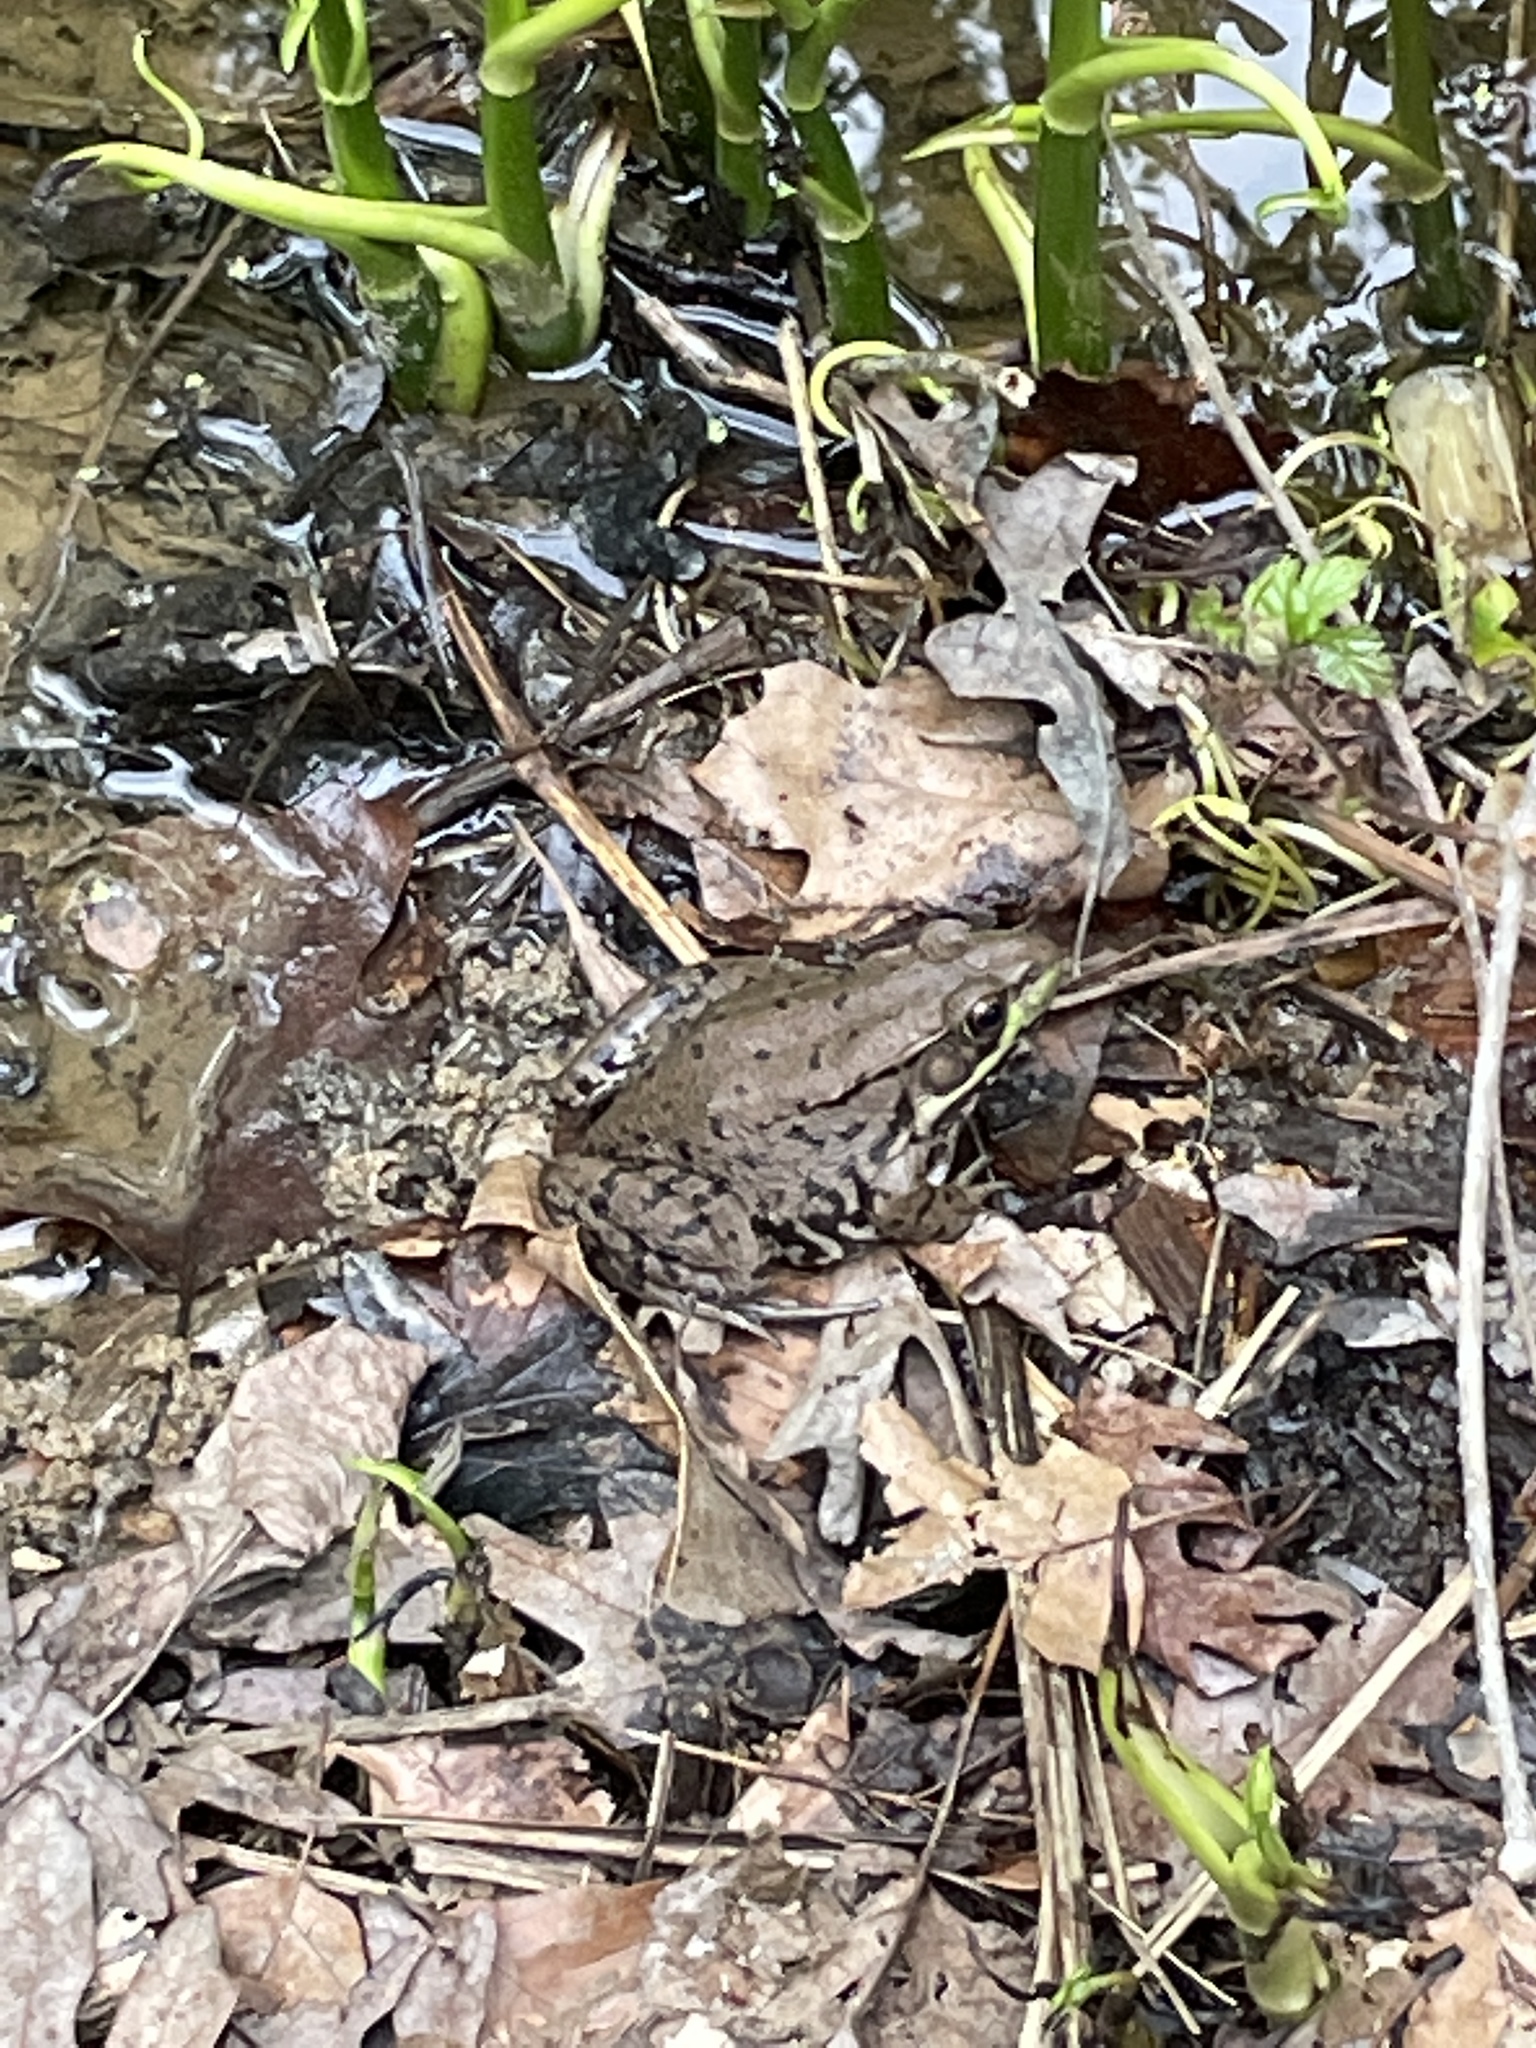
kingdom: Animalia
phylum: Chordata
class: Amphibia
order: Anura
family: Ranidae
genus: Lithobates
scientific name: Lithobates clamitans
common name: Green frog
